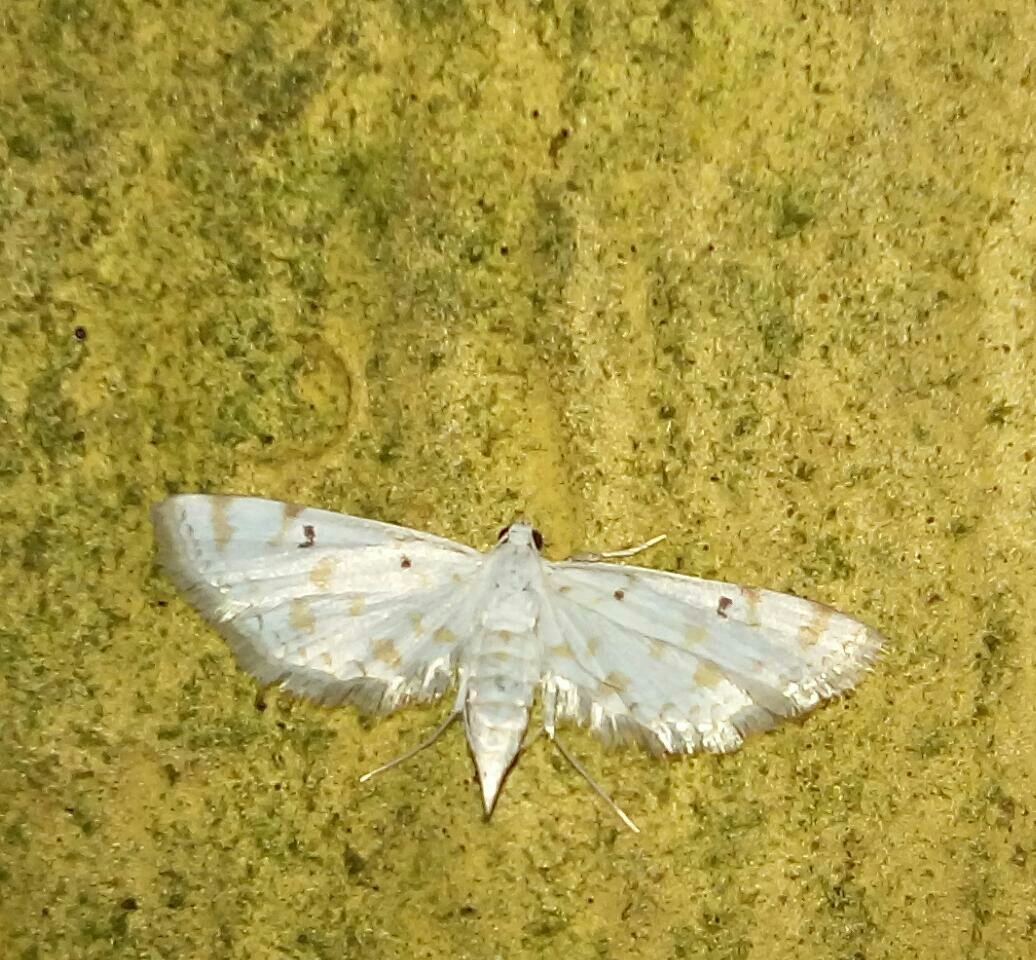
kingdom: Animalia
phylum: Arthropoda
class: Insecta
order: Lepidoptera
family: Crambidae
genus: Parapoynx
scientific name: Parapoynx stagnalis
